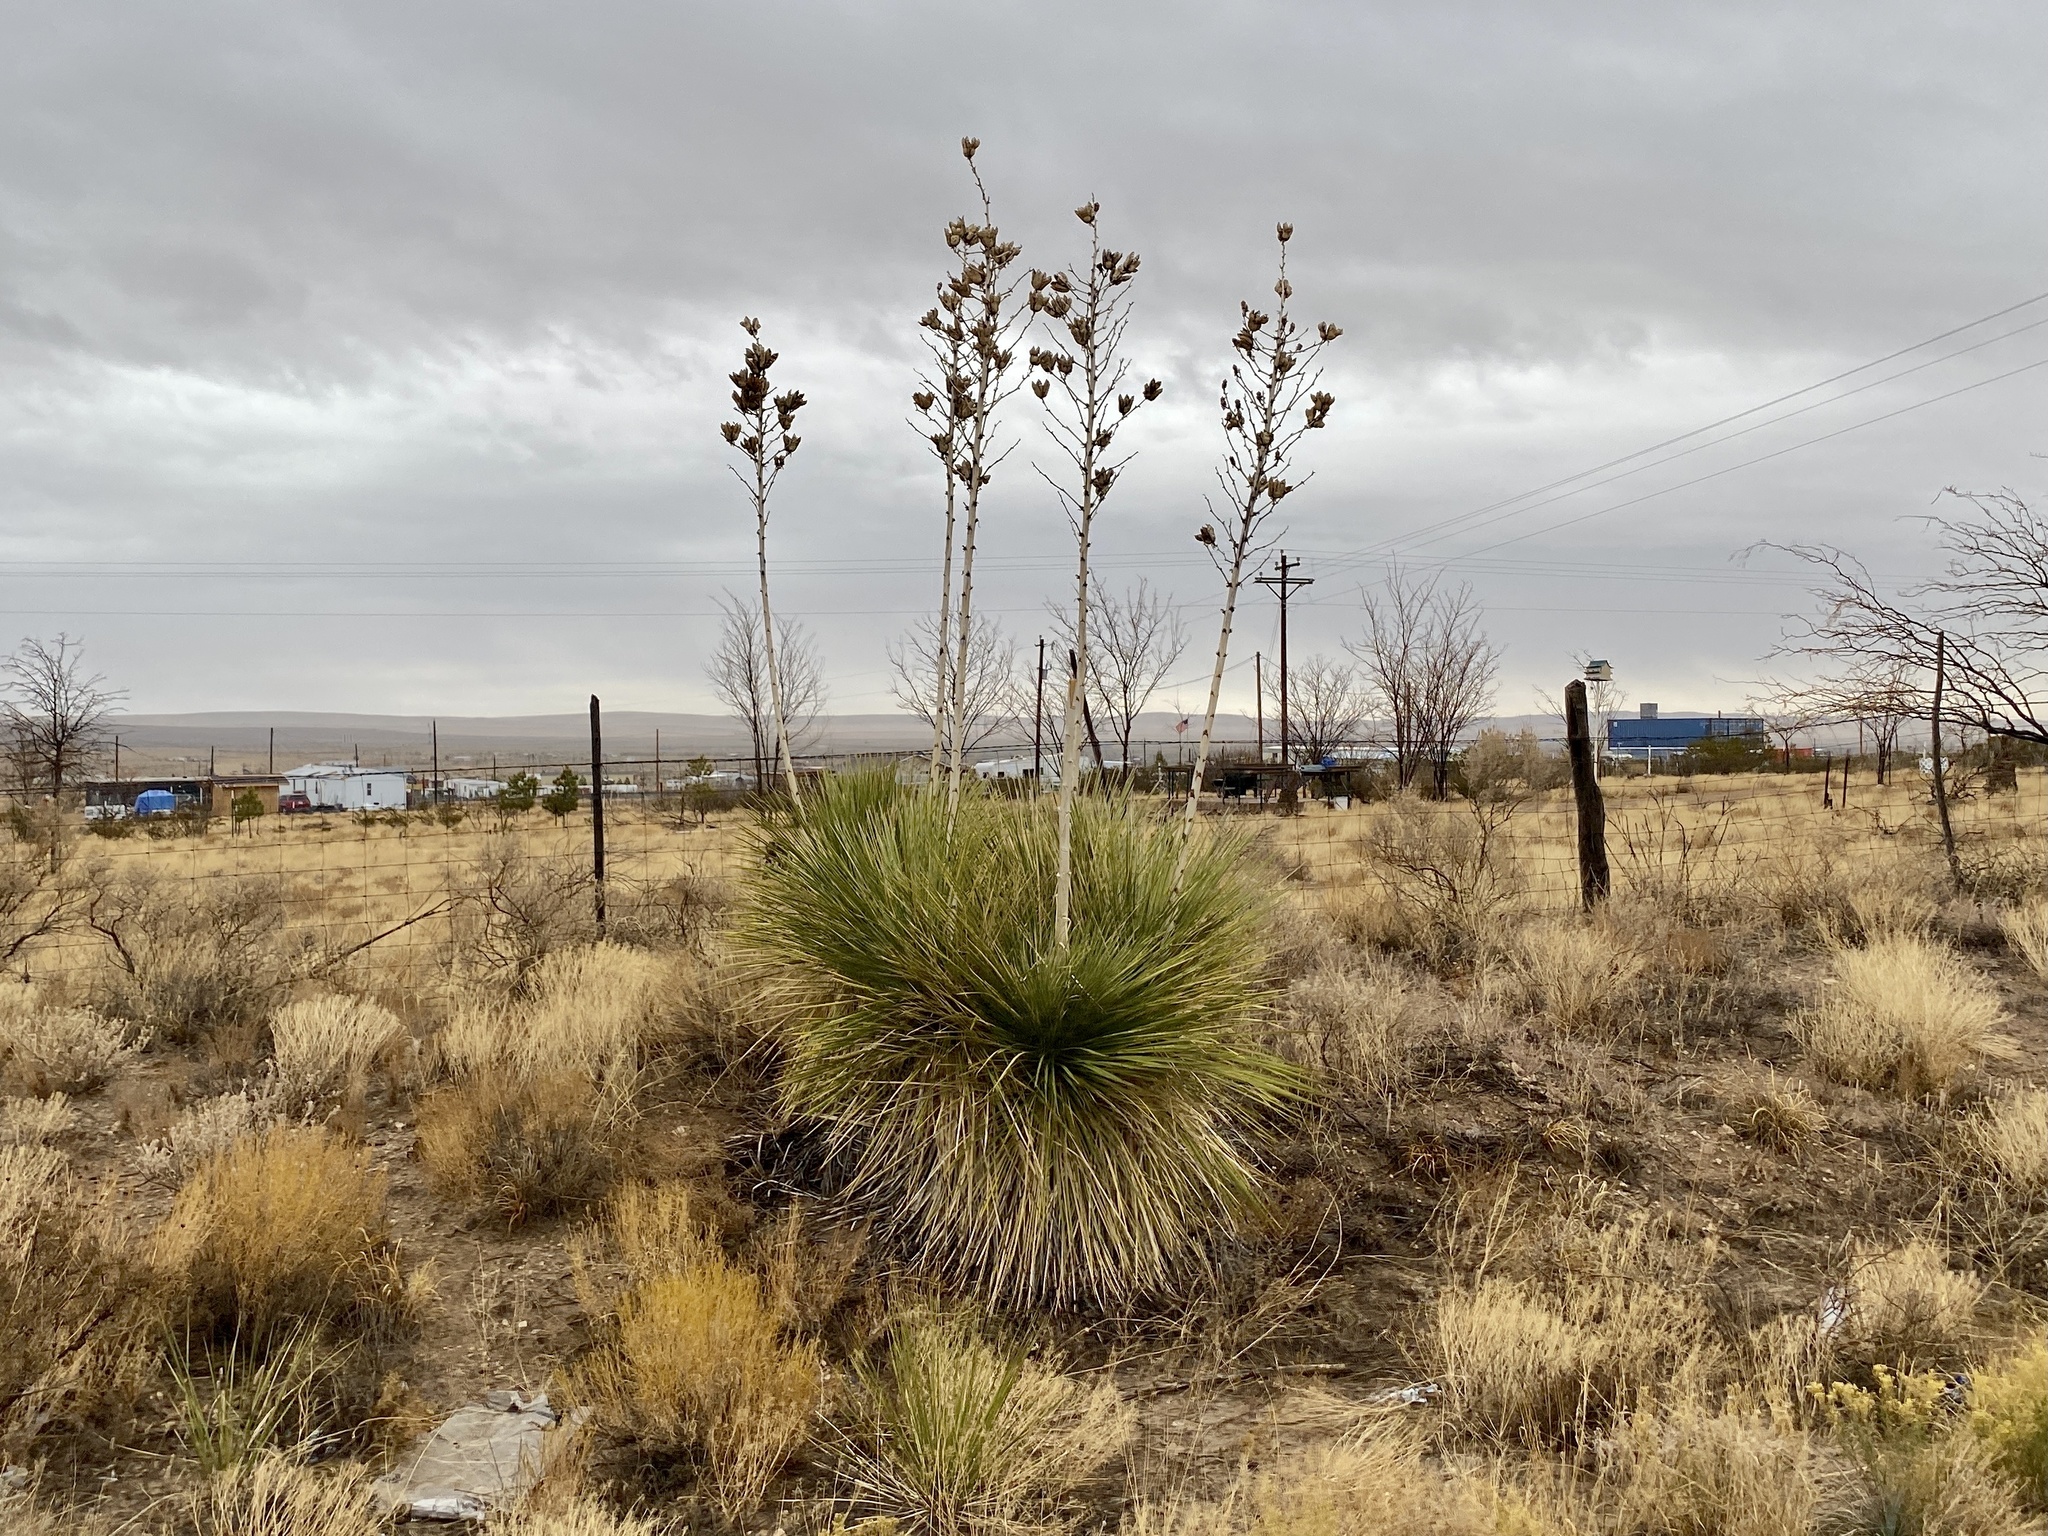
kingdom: Plantae
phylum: Tracheophyta
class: Liliopsida
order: Asparagales
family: Asparagaceae
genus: Yucca
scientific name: Yucca elata
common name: Palmella
